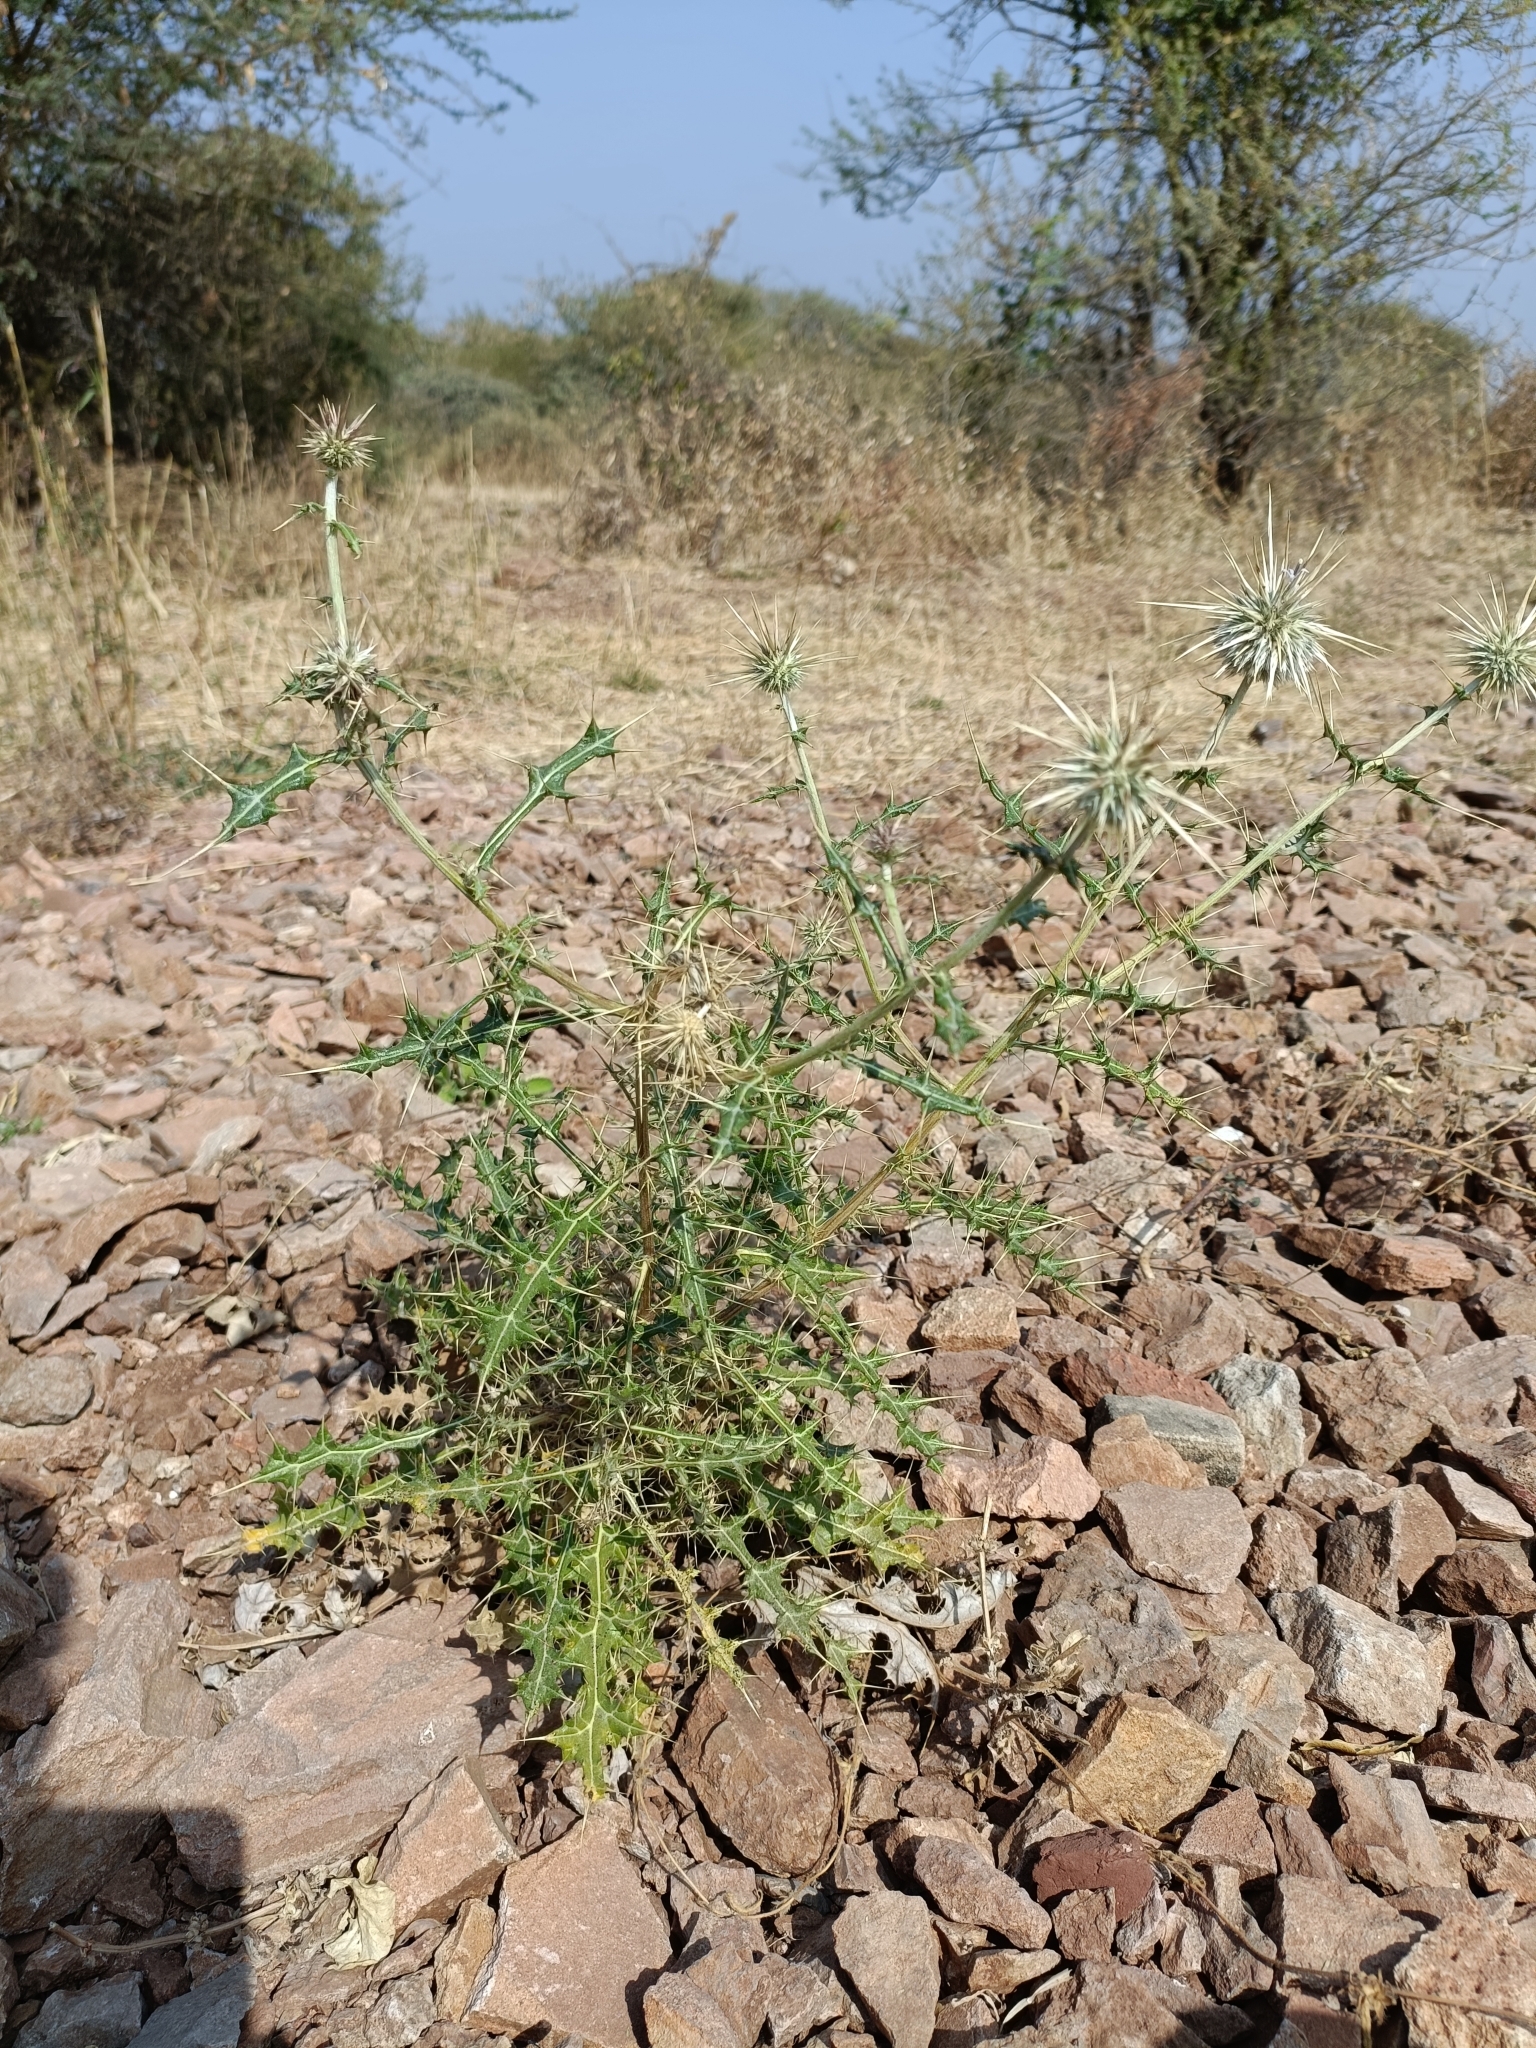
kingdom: Plantae
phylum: Tracheophyta
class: Magnoliopsida
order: Asterales
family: Asteraceae
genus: Echinops
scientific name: Echinops echinatus
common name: Indian globe thistle
